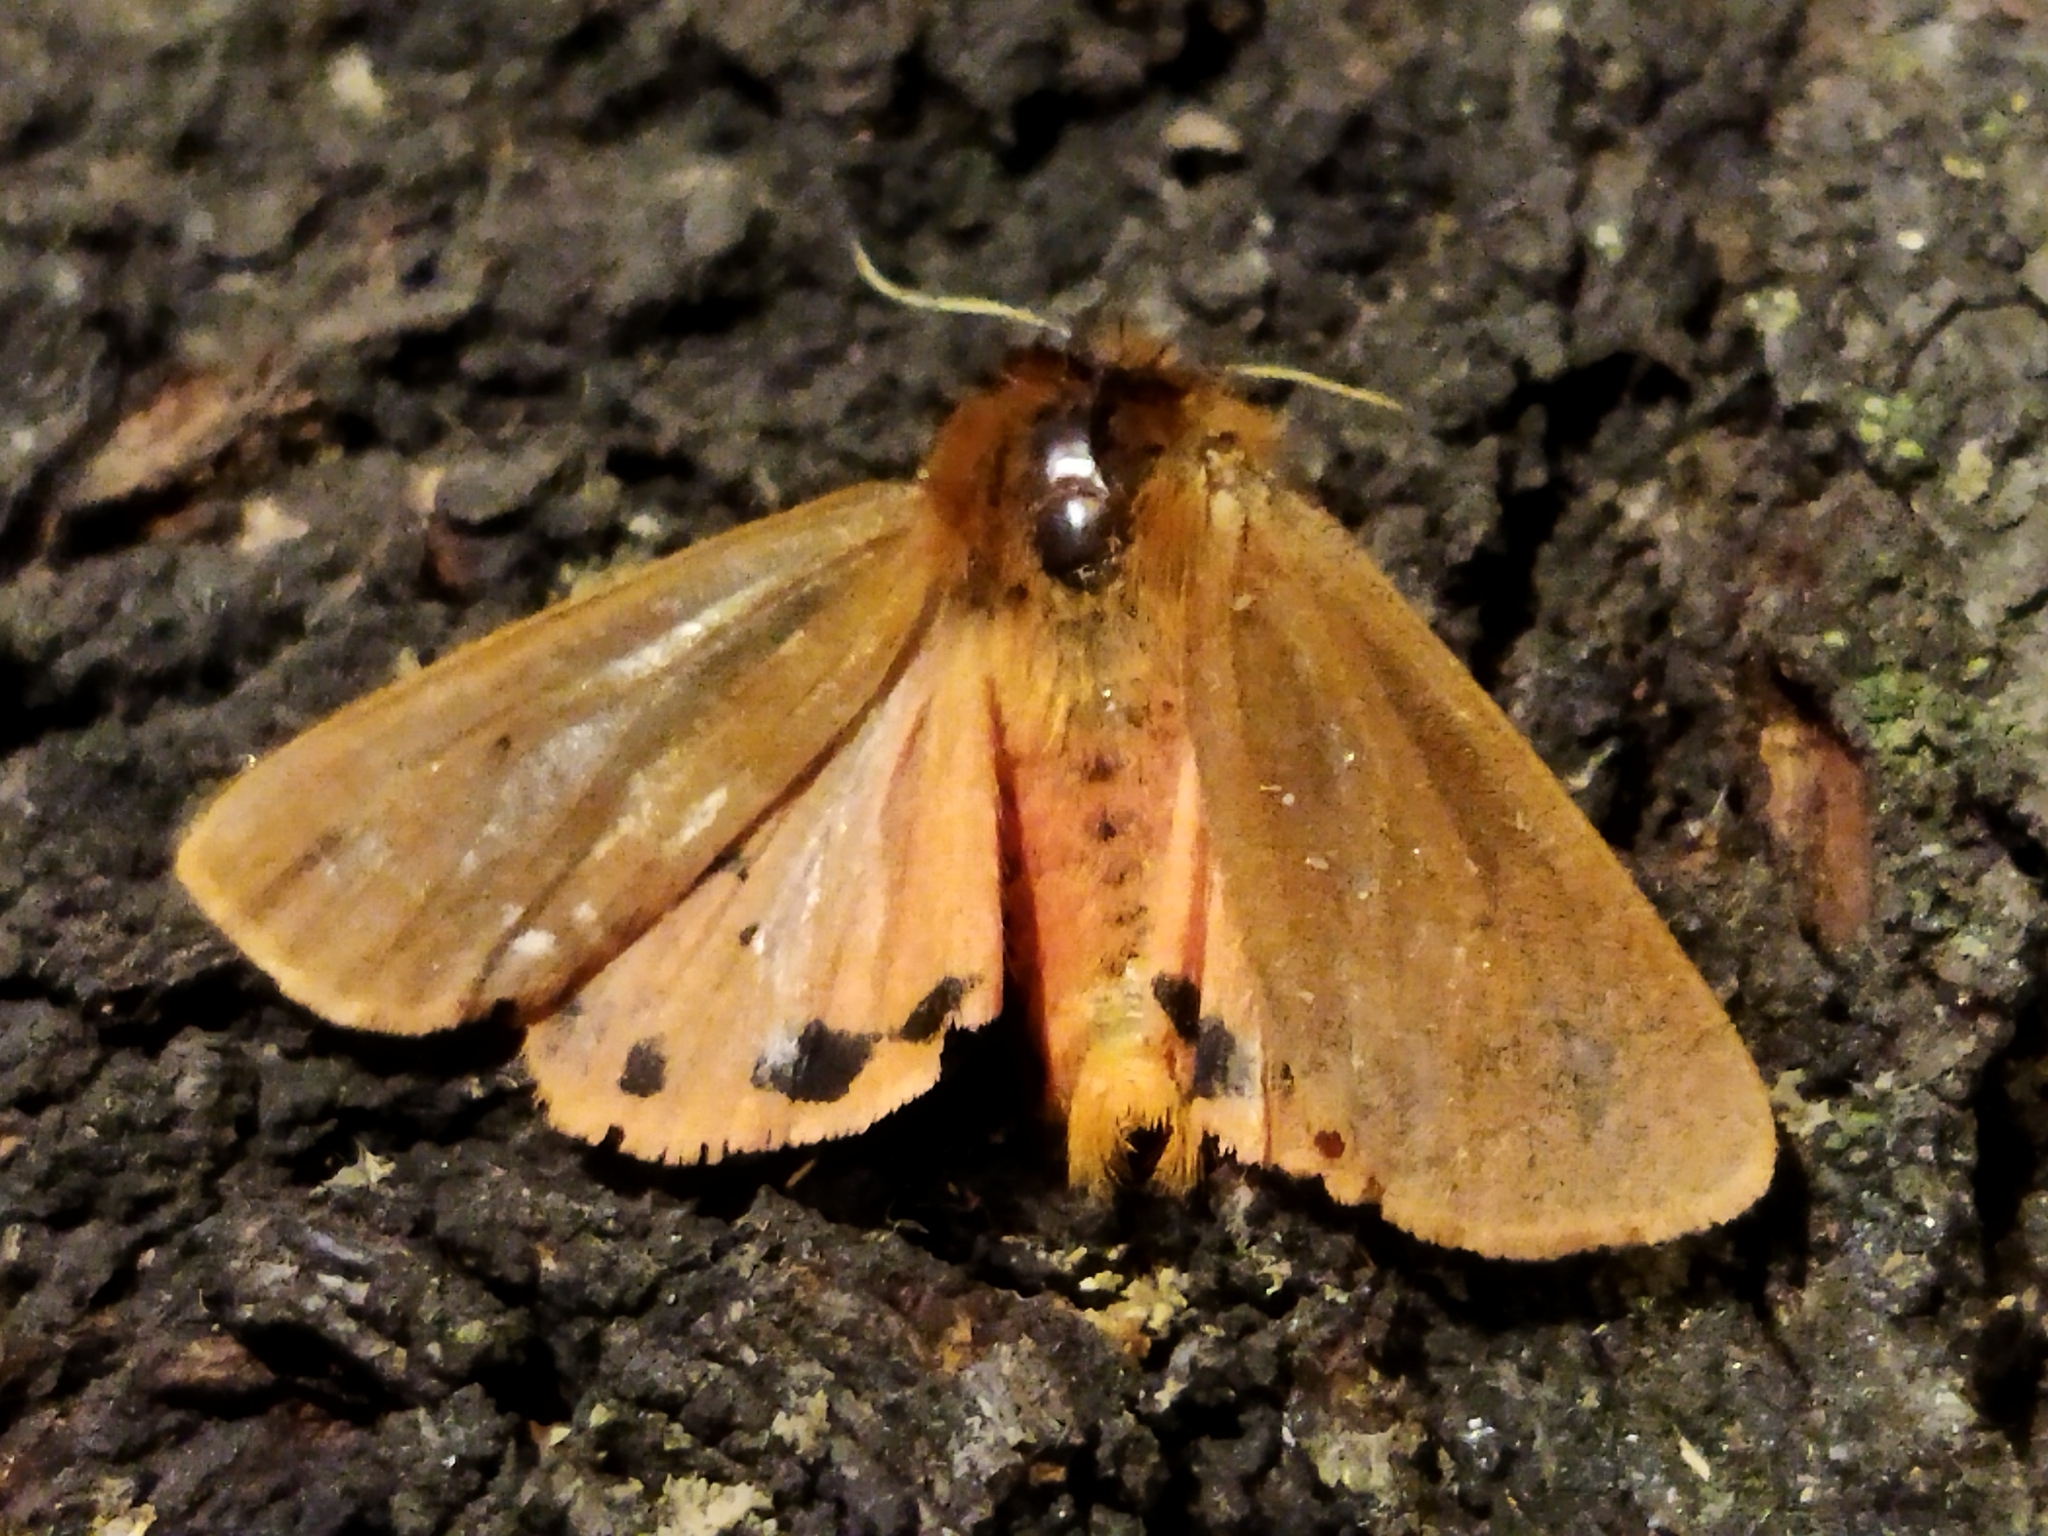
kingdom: Animalia
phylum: Arthropoda
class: Insecta
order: Lepidoptera
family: Erebidae
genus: Phragmatobia
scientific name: Phragmatobia fuliginosa
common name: Ruby tiger
